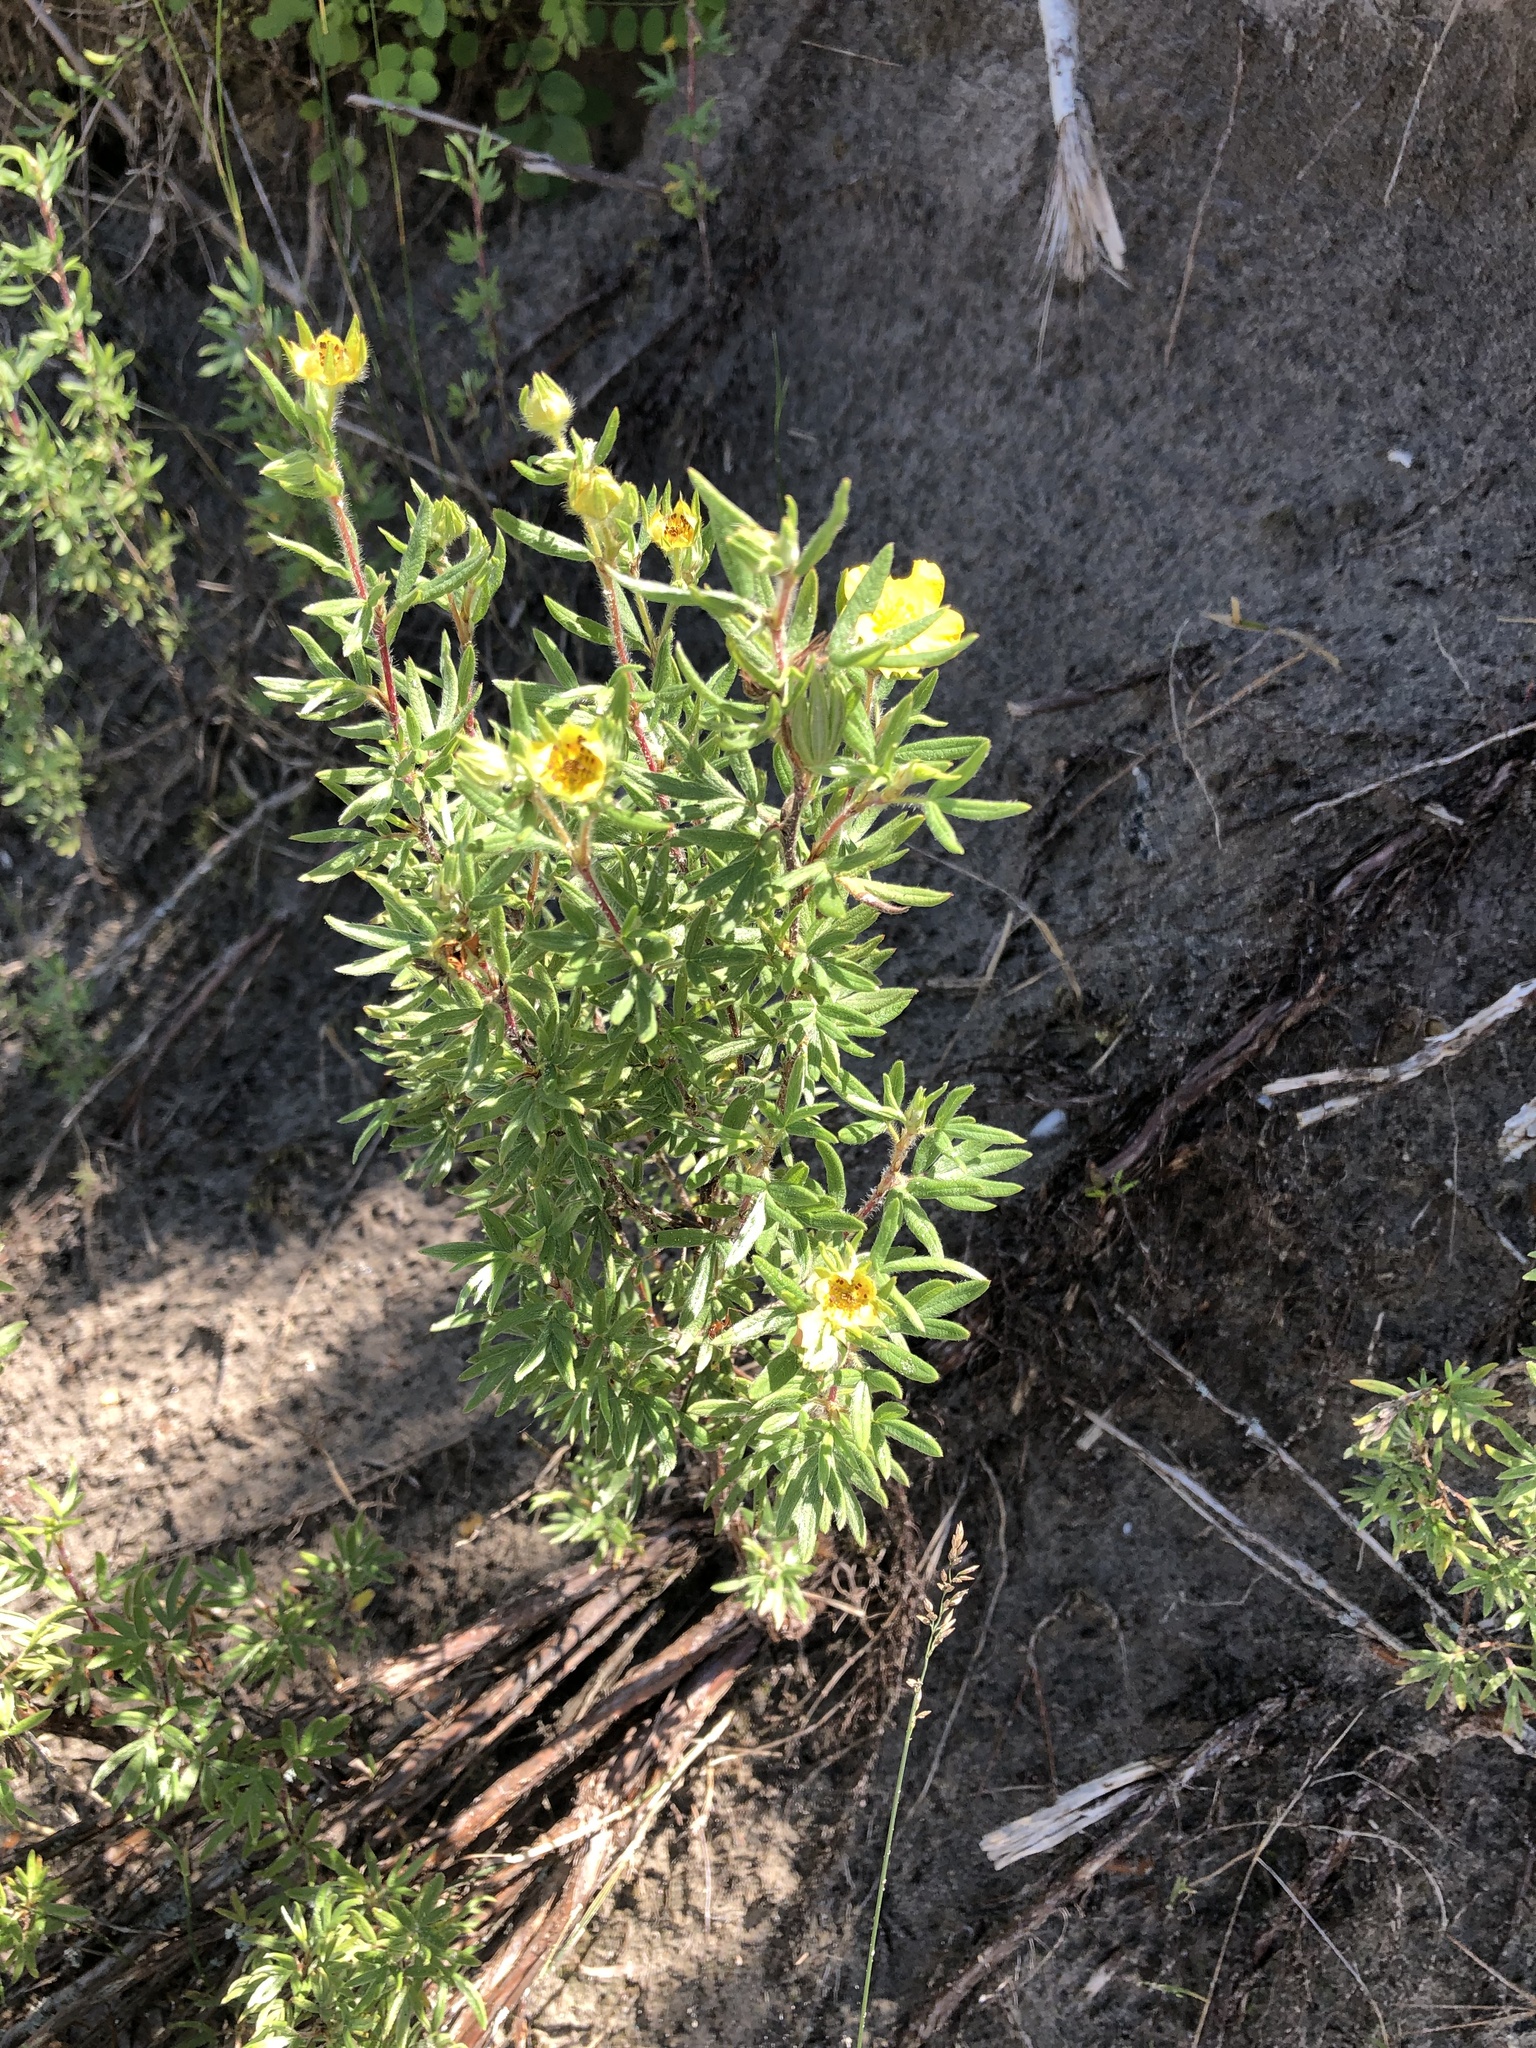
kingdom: Plantae
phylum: Tracheophyta
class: Magnoliopsida
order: Rosales
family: Rosaceae
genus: Dasiphora
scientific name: Dasiphora fruticosa
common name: Shrubby cinquefoil
